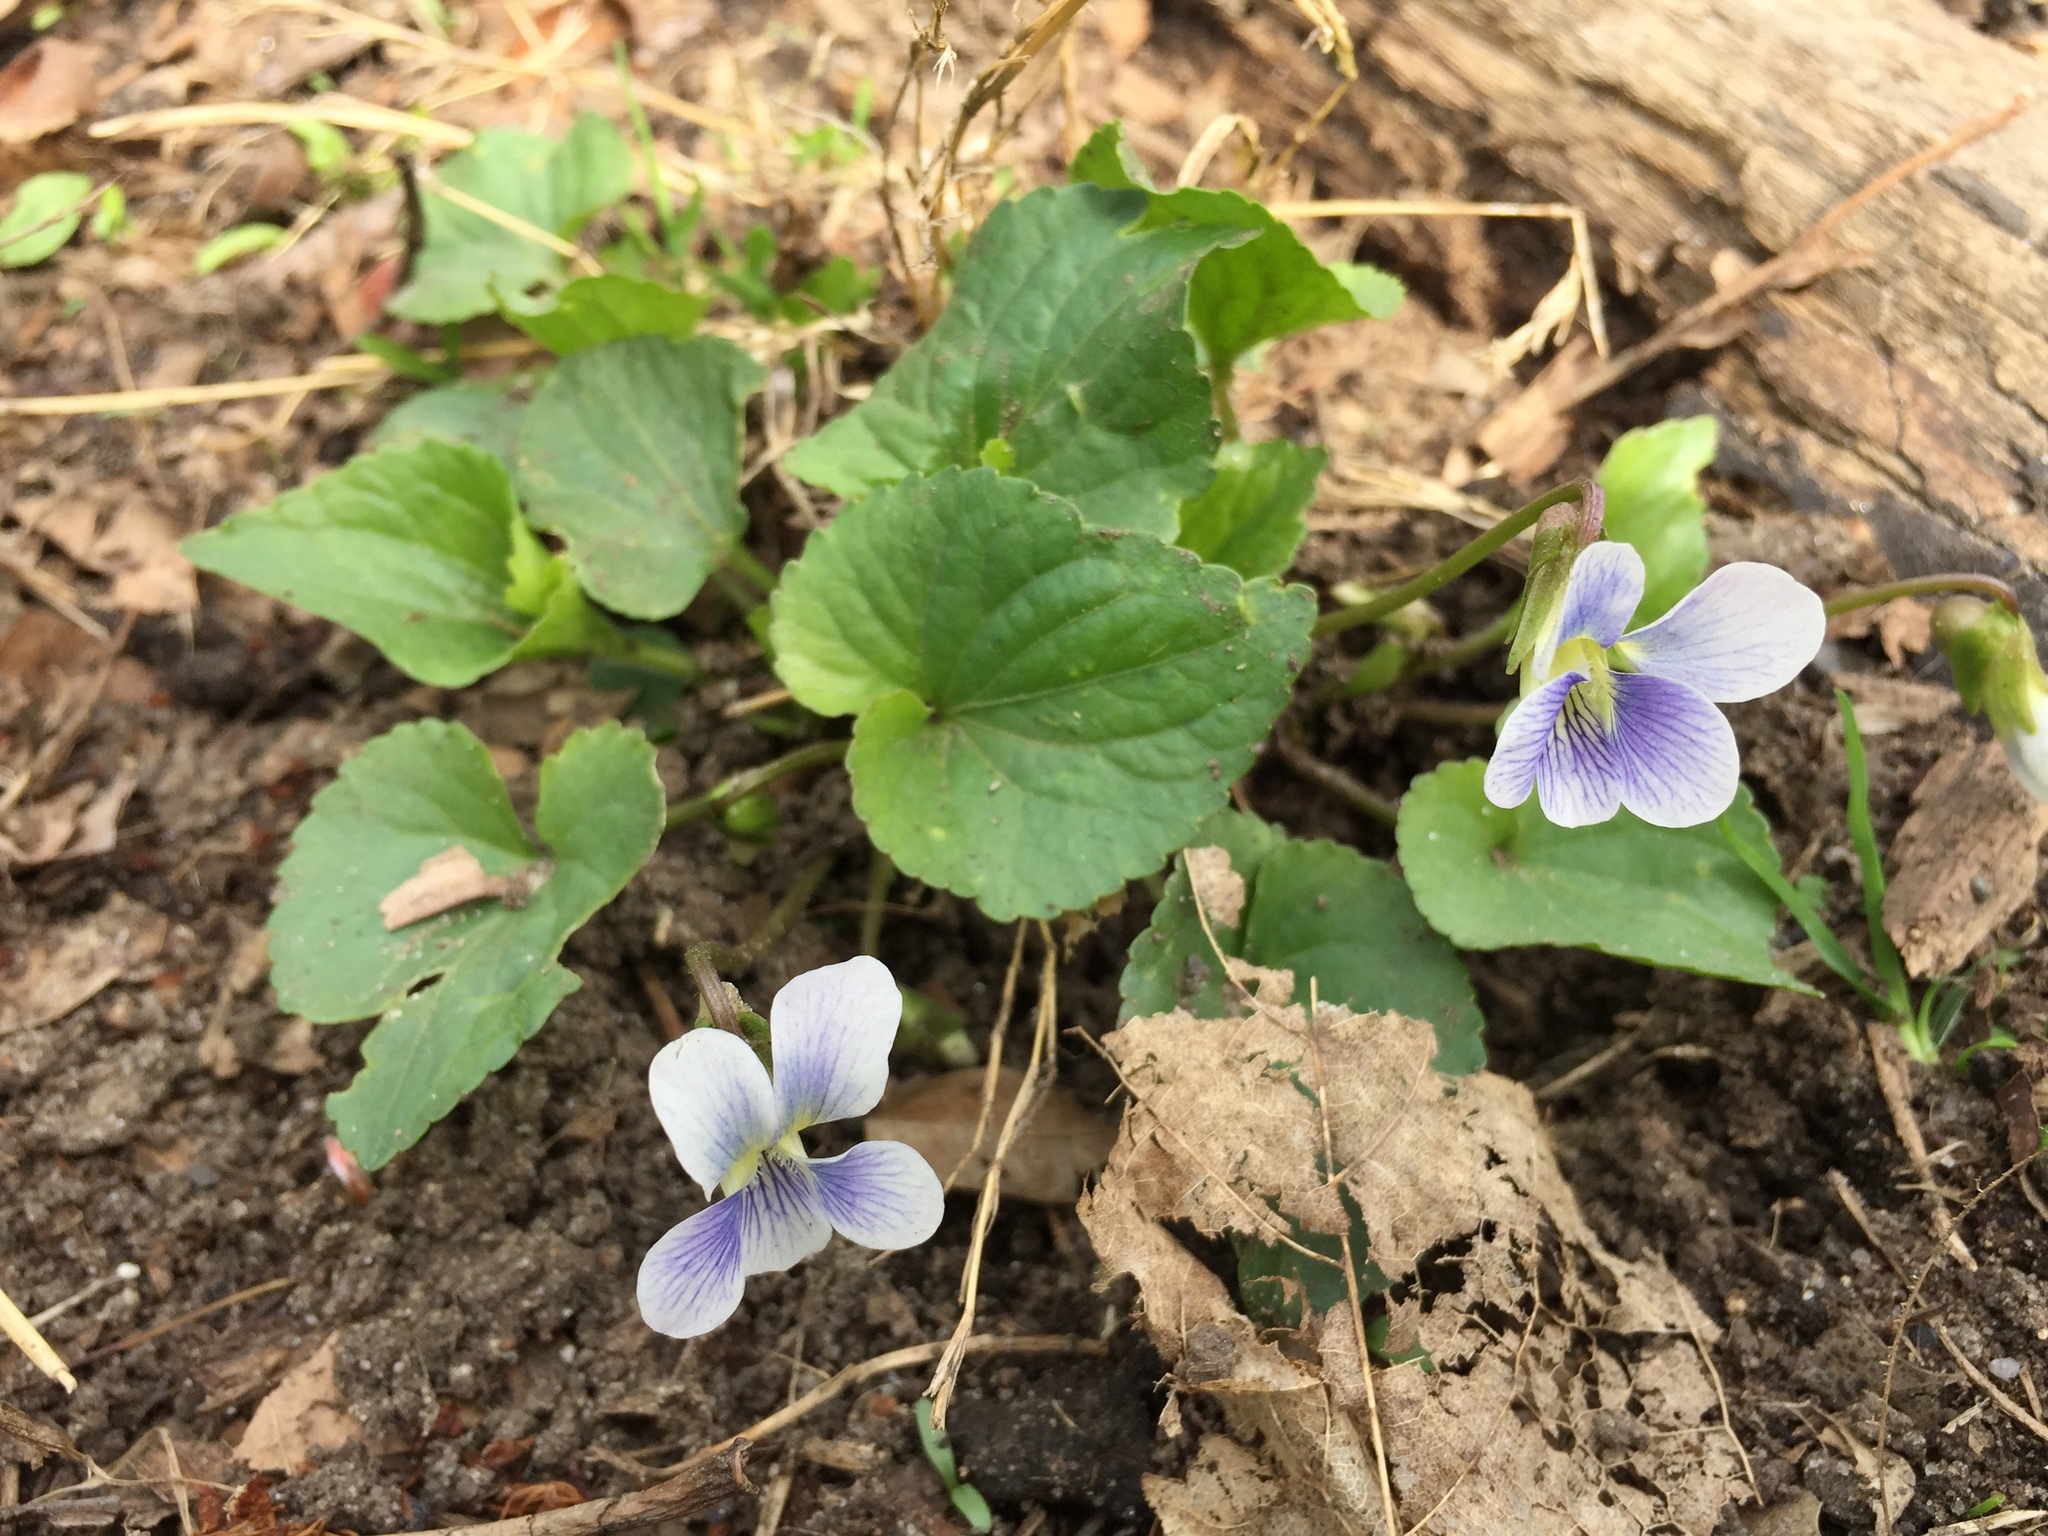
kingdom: Plantae
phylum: Tracheophyta
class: Magnoliopsida
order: Malpighiales
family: Violaceae
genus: Viola
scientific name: Viola sororia
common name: Dooryard violet
